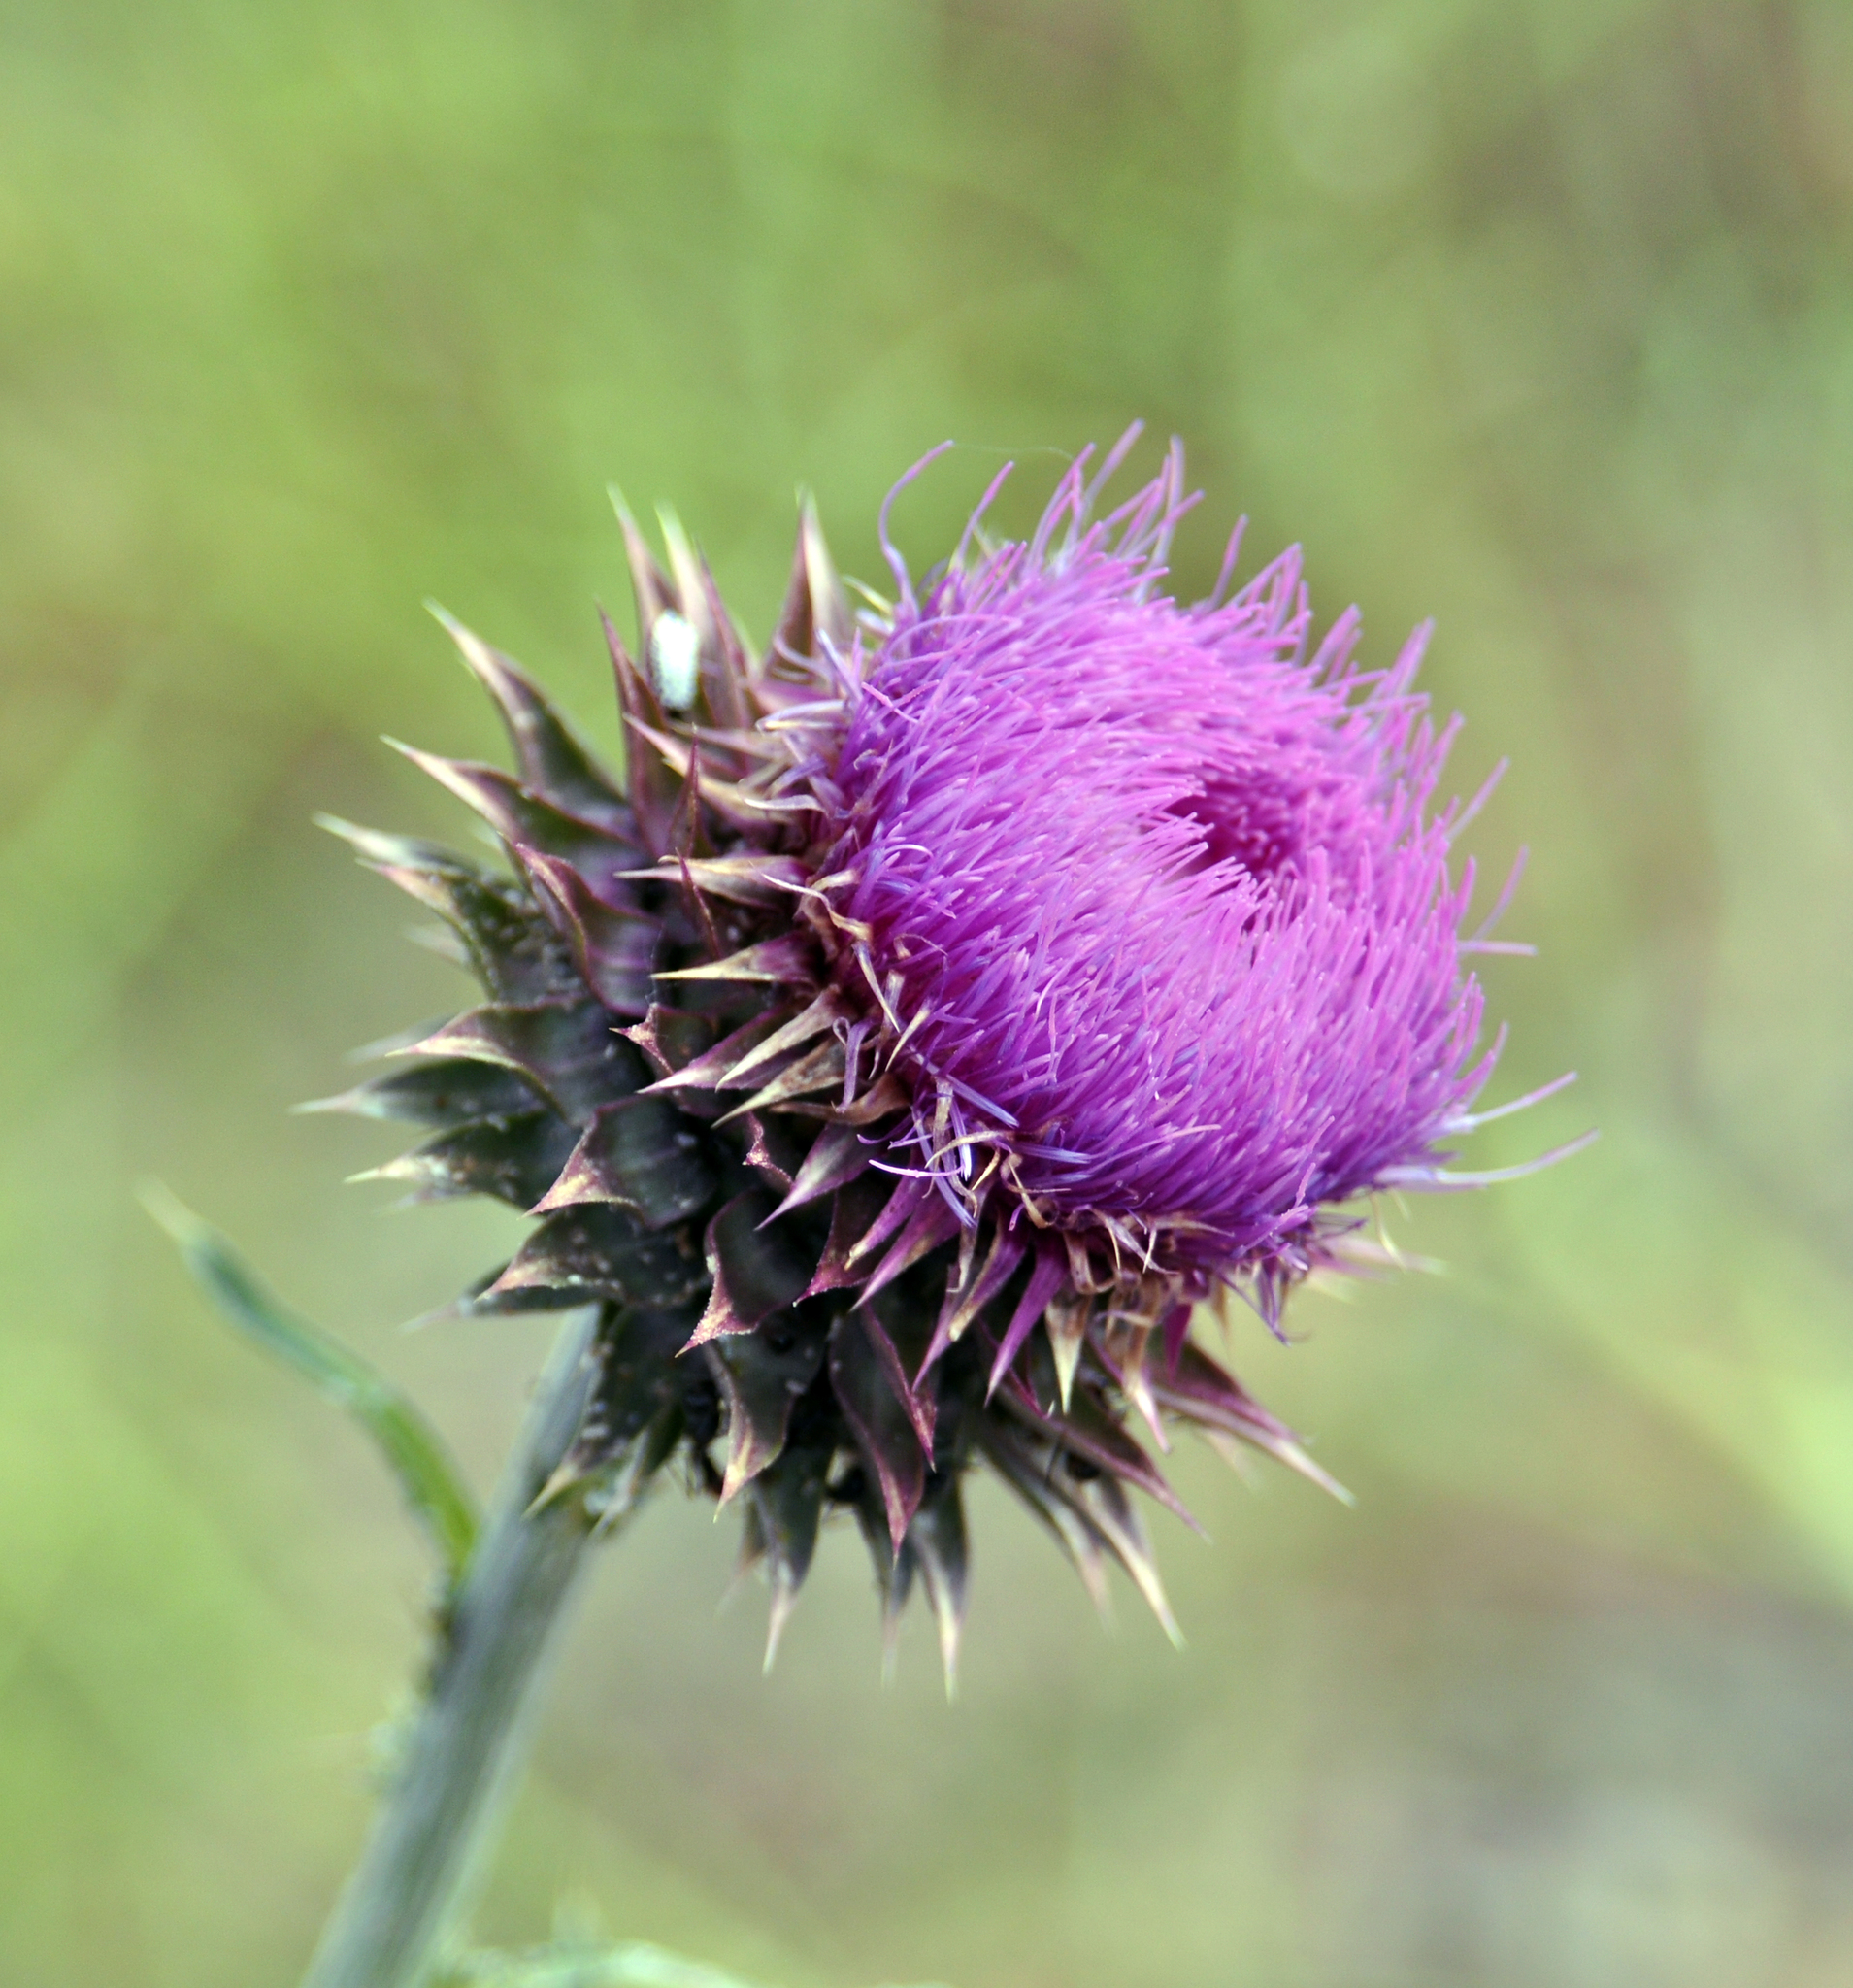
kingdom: Plantae
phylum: Tracheophyta
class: Magnoliopsida
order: Asterales
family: Asteraceae
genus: Carduus
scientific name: Carduus nutans
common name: Musk thistle
